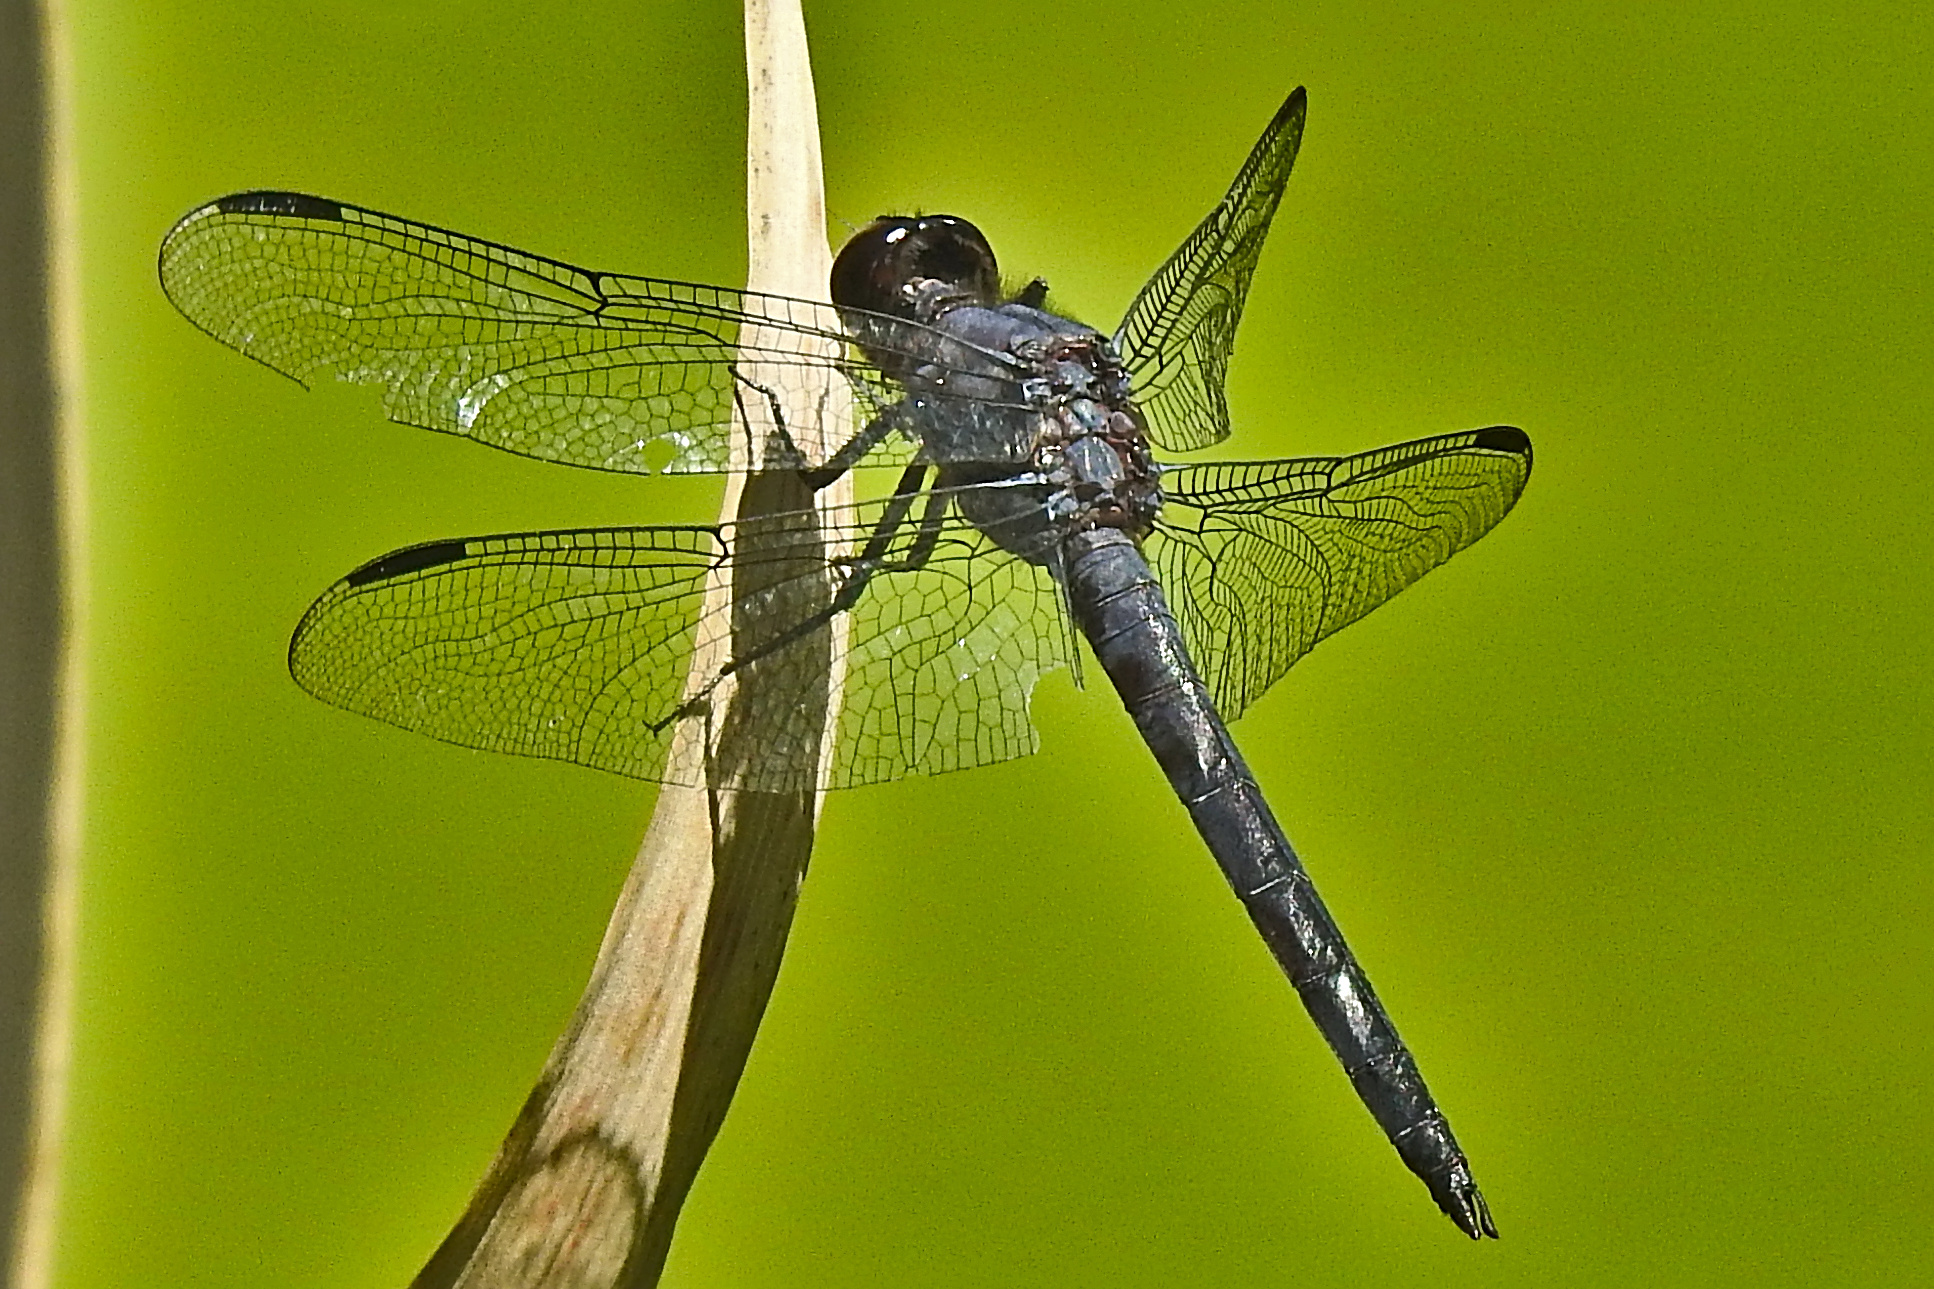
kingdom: Animalia
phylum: Arthropoda
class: Insecta
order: Odonata
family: Libellulidae
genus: Libellula
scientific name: Libellula incesta
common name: Slaty skimmer
